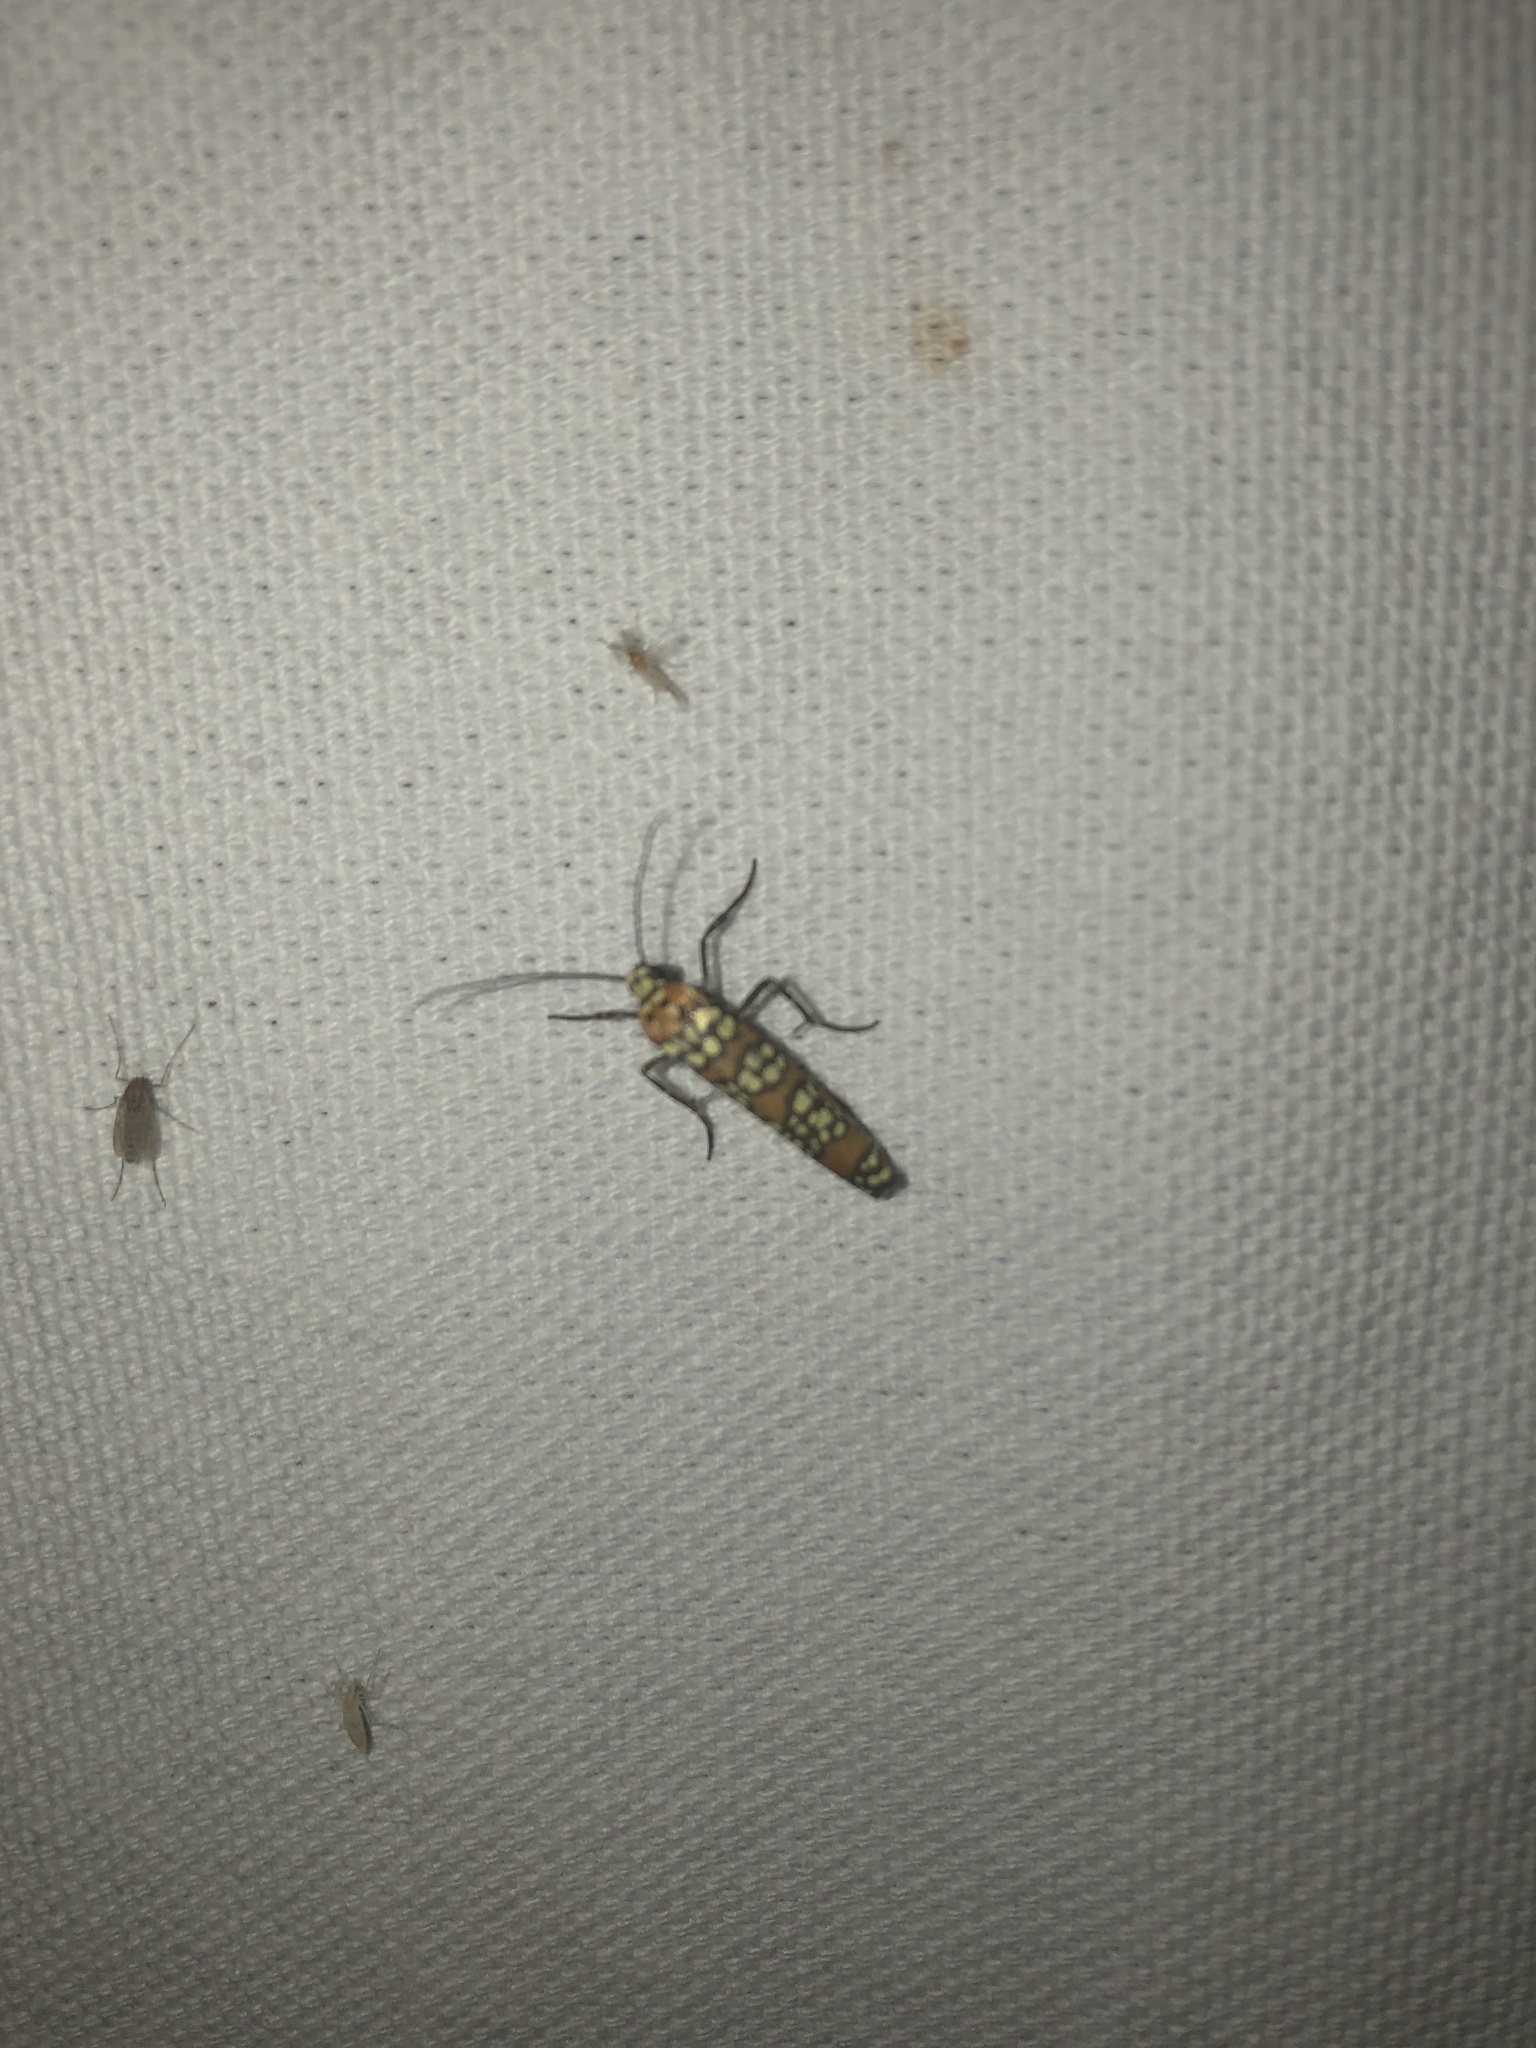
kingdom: Animalia
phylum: Arthropoda
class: Insecta
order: Lepidoptera
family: Attevidae
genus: Atteva
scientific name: Atteva punctella
